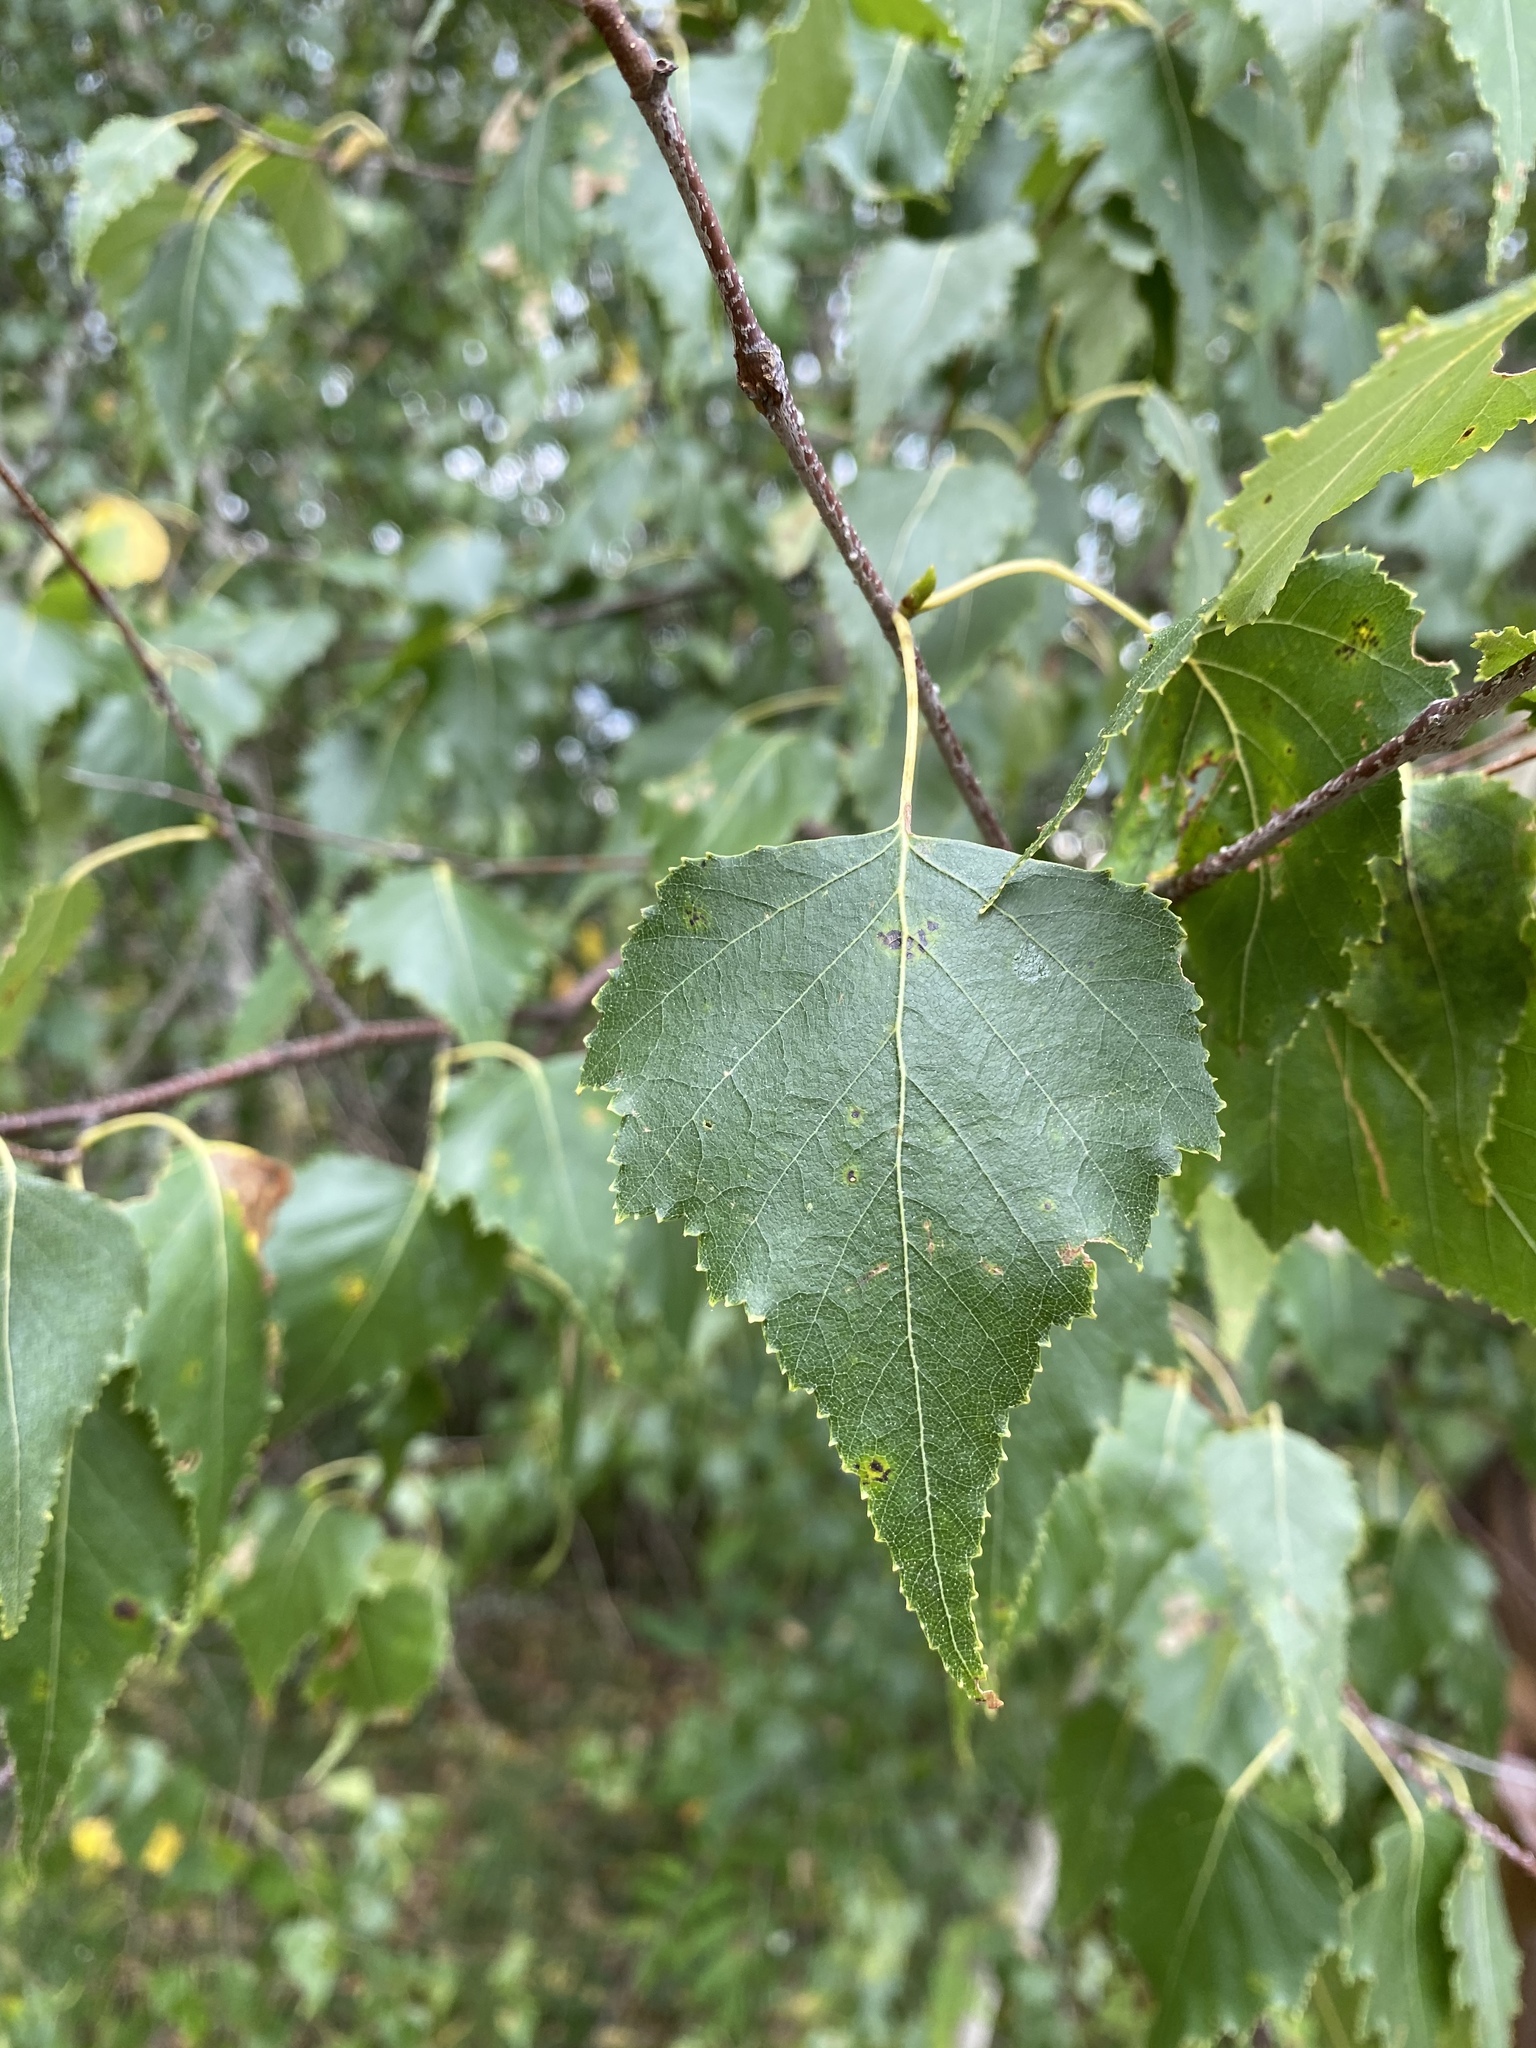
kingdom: Plantae
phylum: Tracheophyta
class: Magnoliopsida
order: Fagales
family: Betulaceae
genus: Betula
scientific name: Betula populifolia
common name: Fire birch
